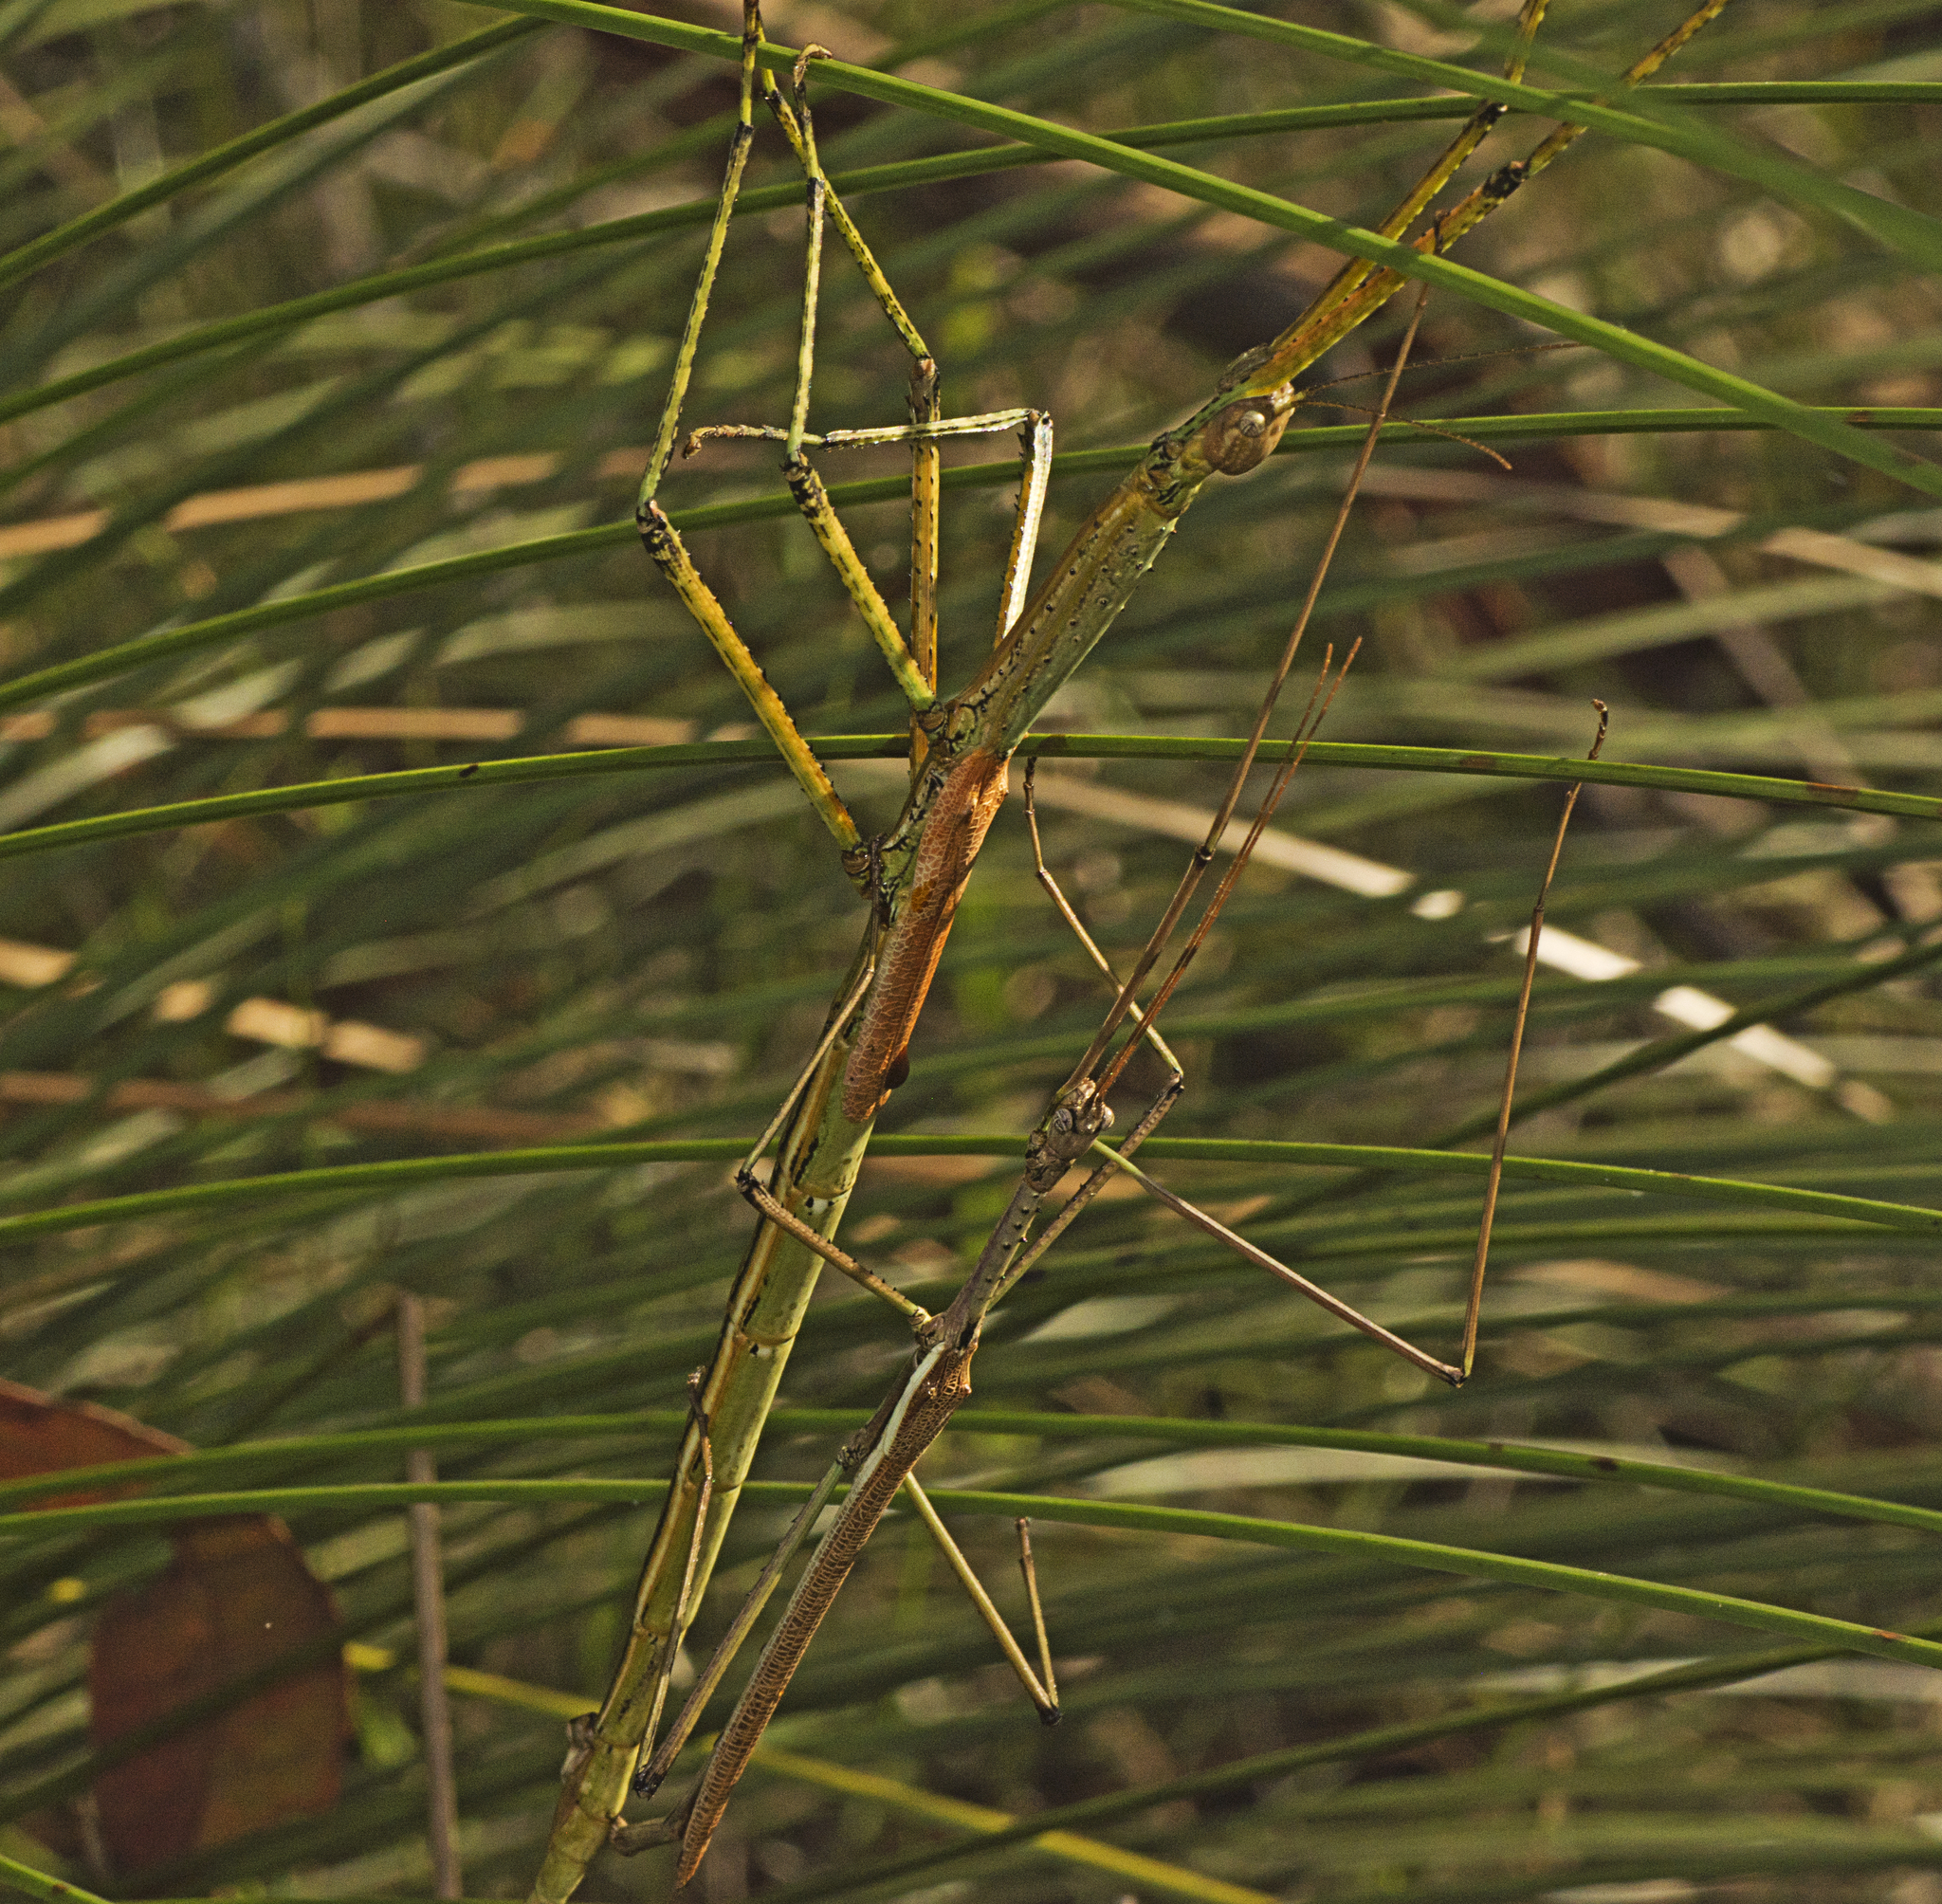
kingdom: Animalia
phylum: Arthropoda
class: Insecta
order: Phasmida
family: Phasmatidae
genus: Anchiale
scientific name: Anchiale austrotessulata
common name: Tessellated stick-insect
